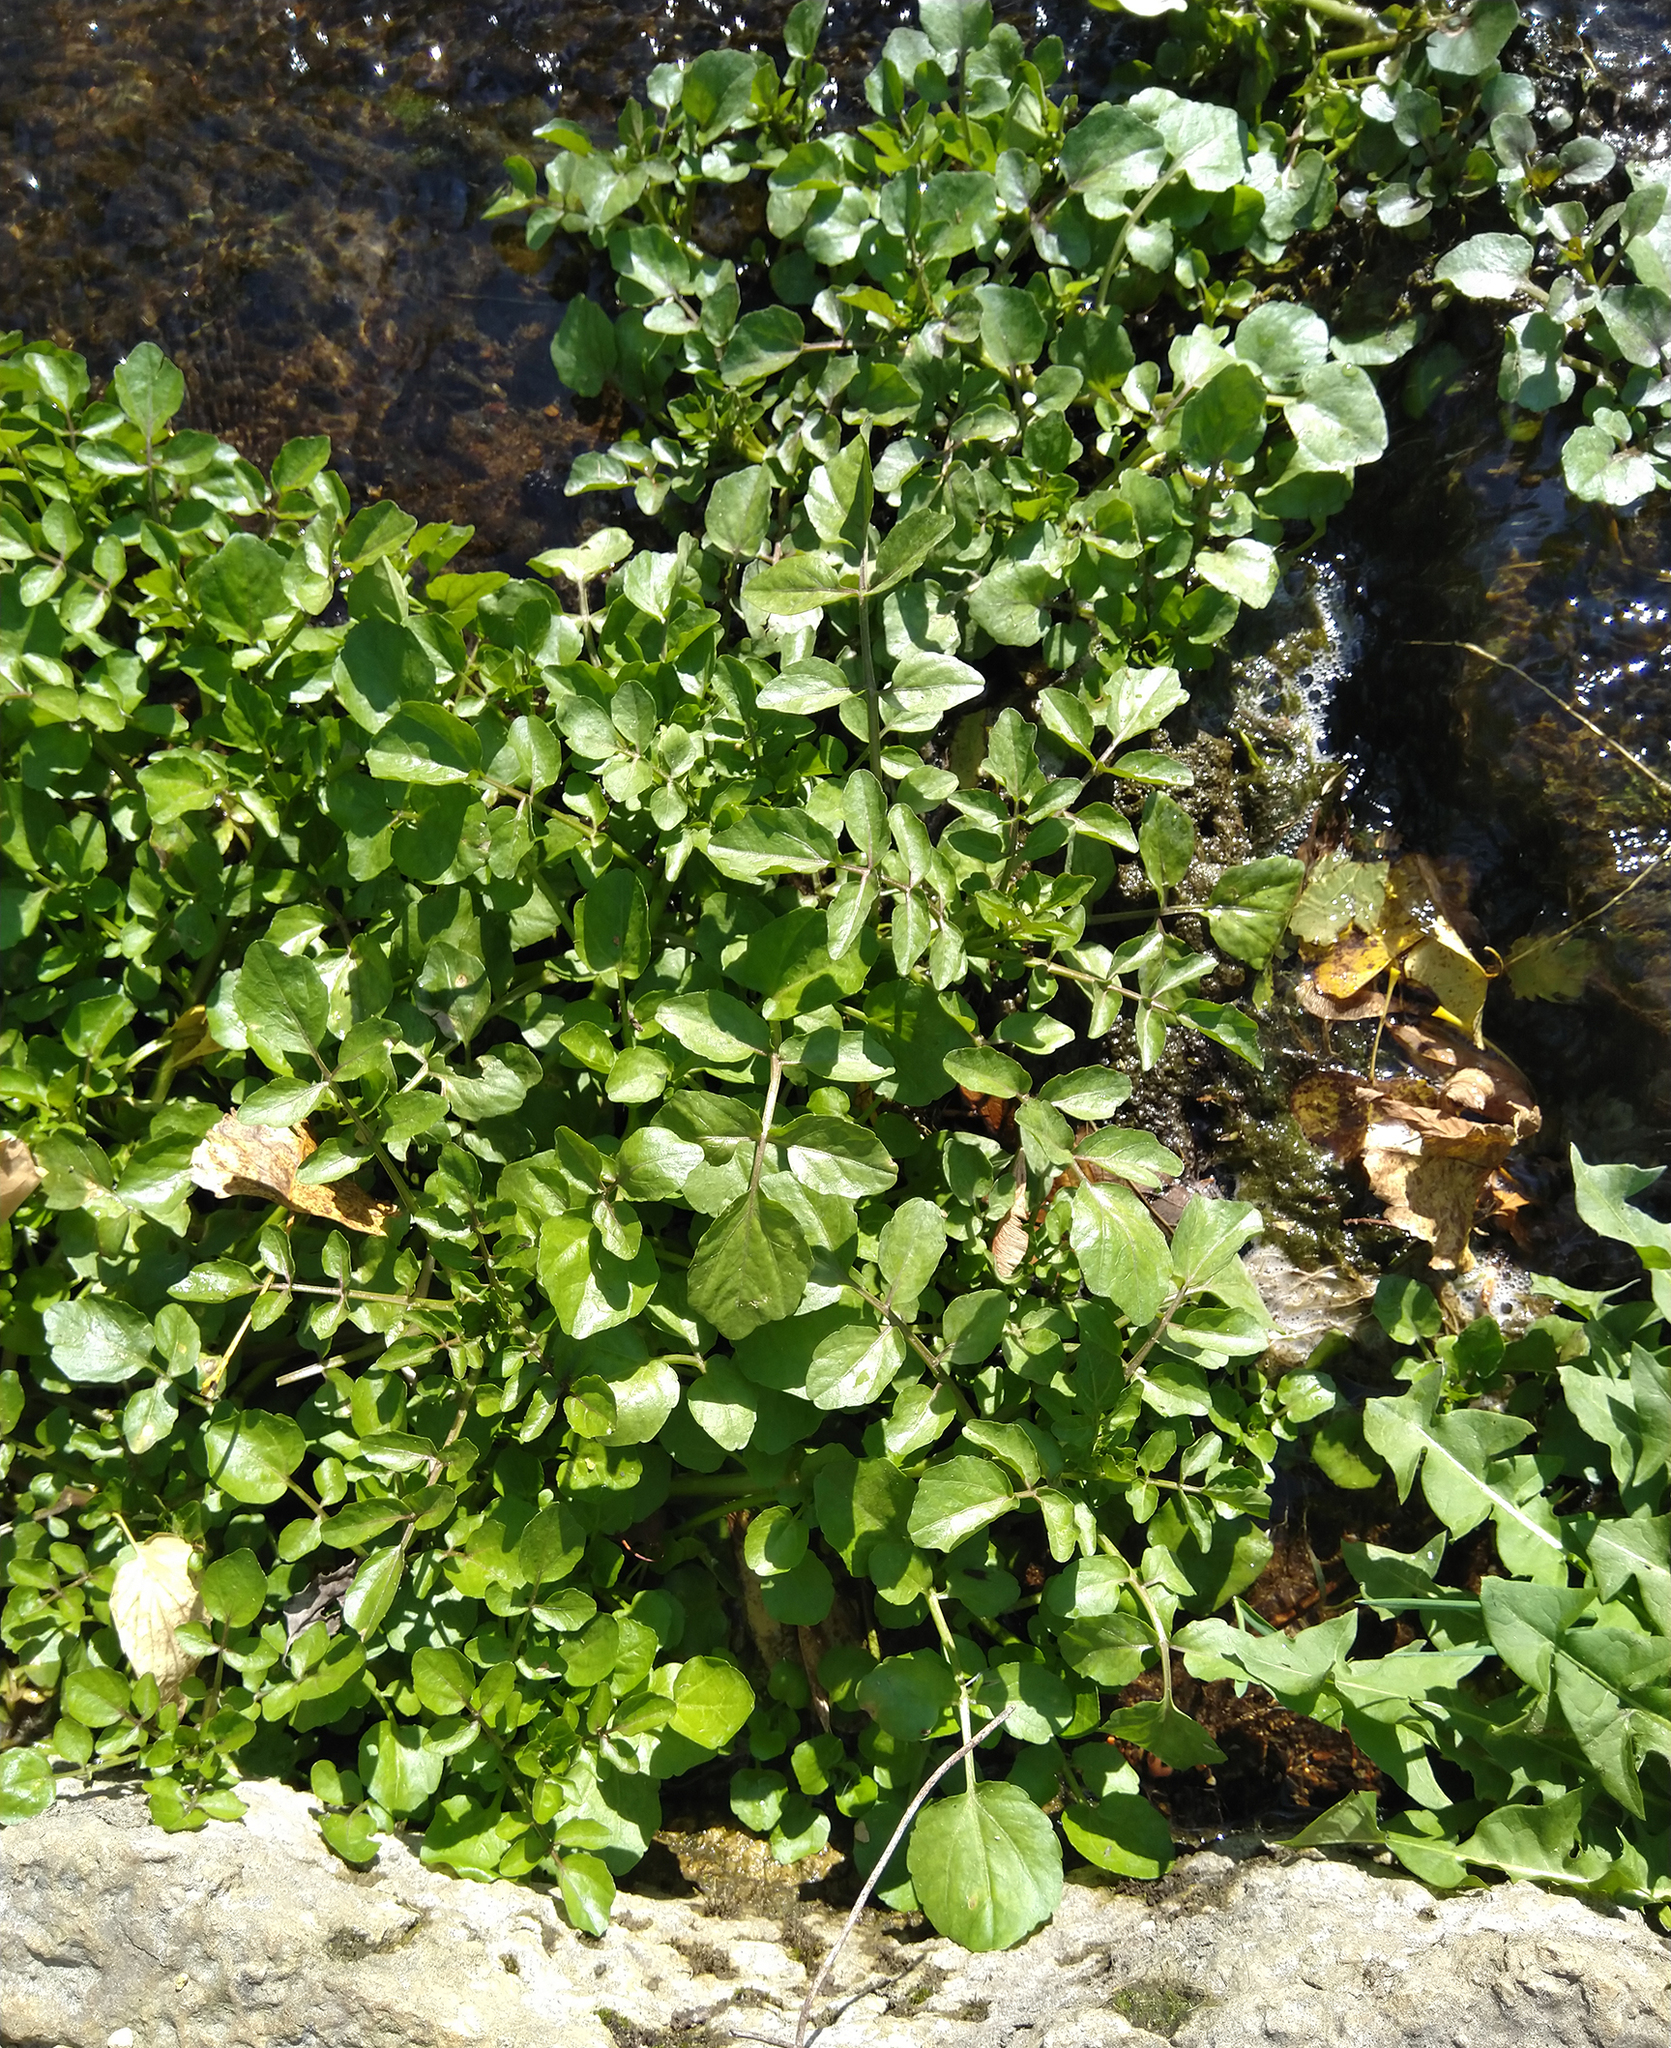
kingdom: Plantae
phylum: Tracheophyta
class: Magnoliopsida
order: Brassicales
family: Brassicaceae
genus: Nasturtium
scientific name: Nasturtium officinale
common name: Watercress
